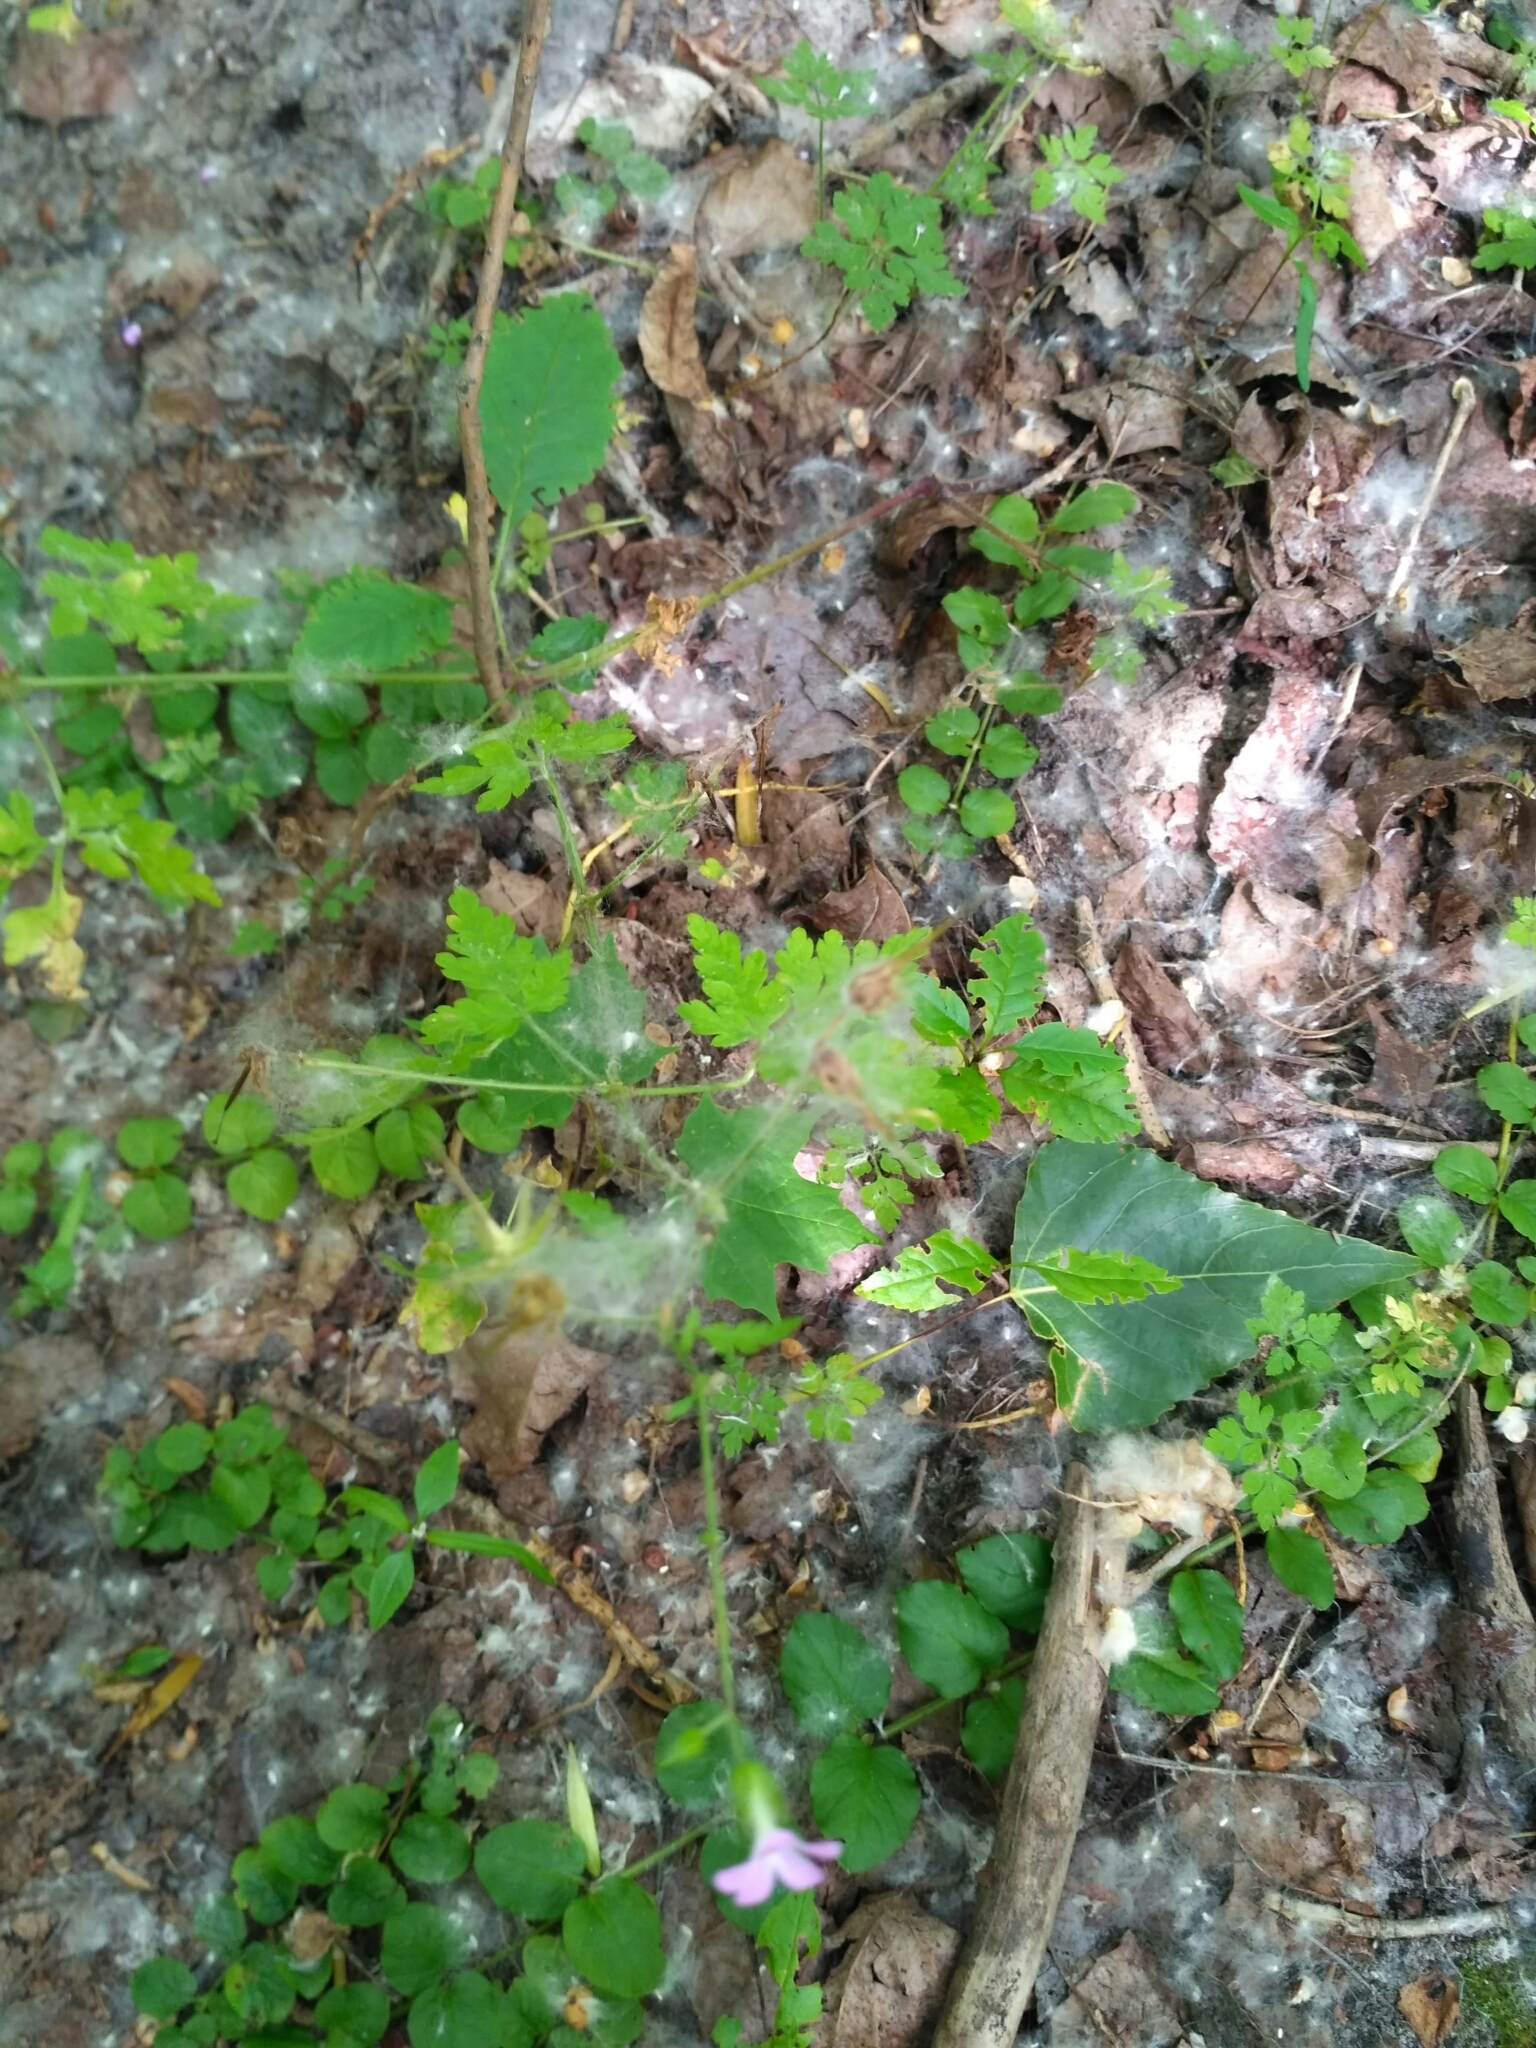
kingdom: Plantae
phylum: Tracheophyta
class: Magnoliopsida
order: Geraniales
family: Geraniaceae
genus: Geranium
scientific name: Geranium robertianum
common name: Herb-robert
